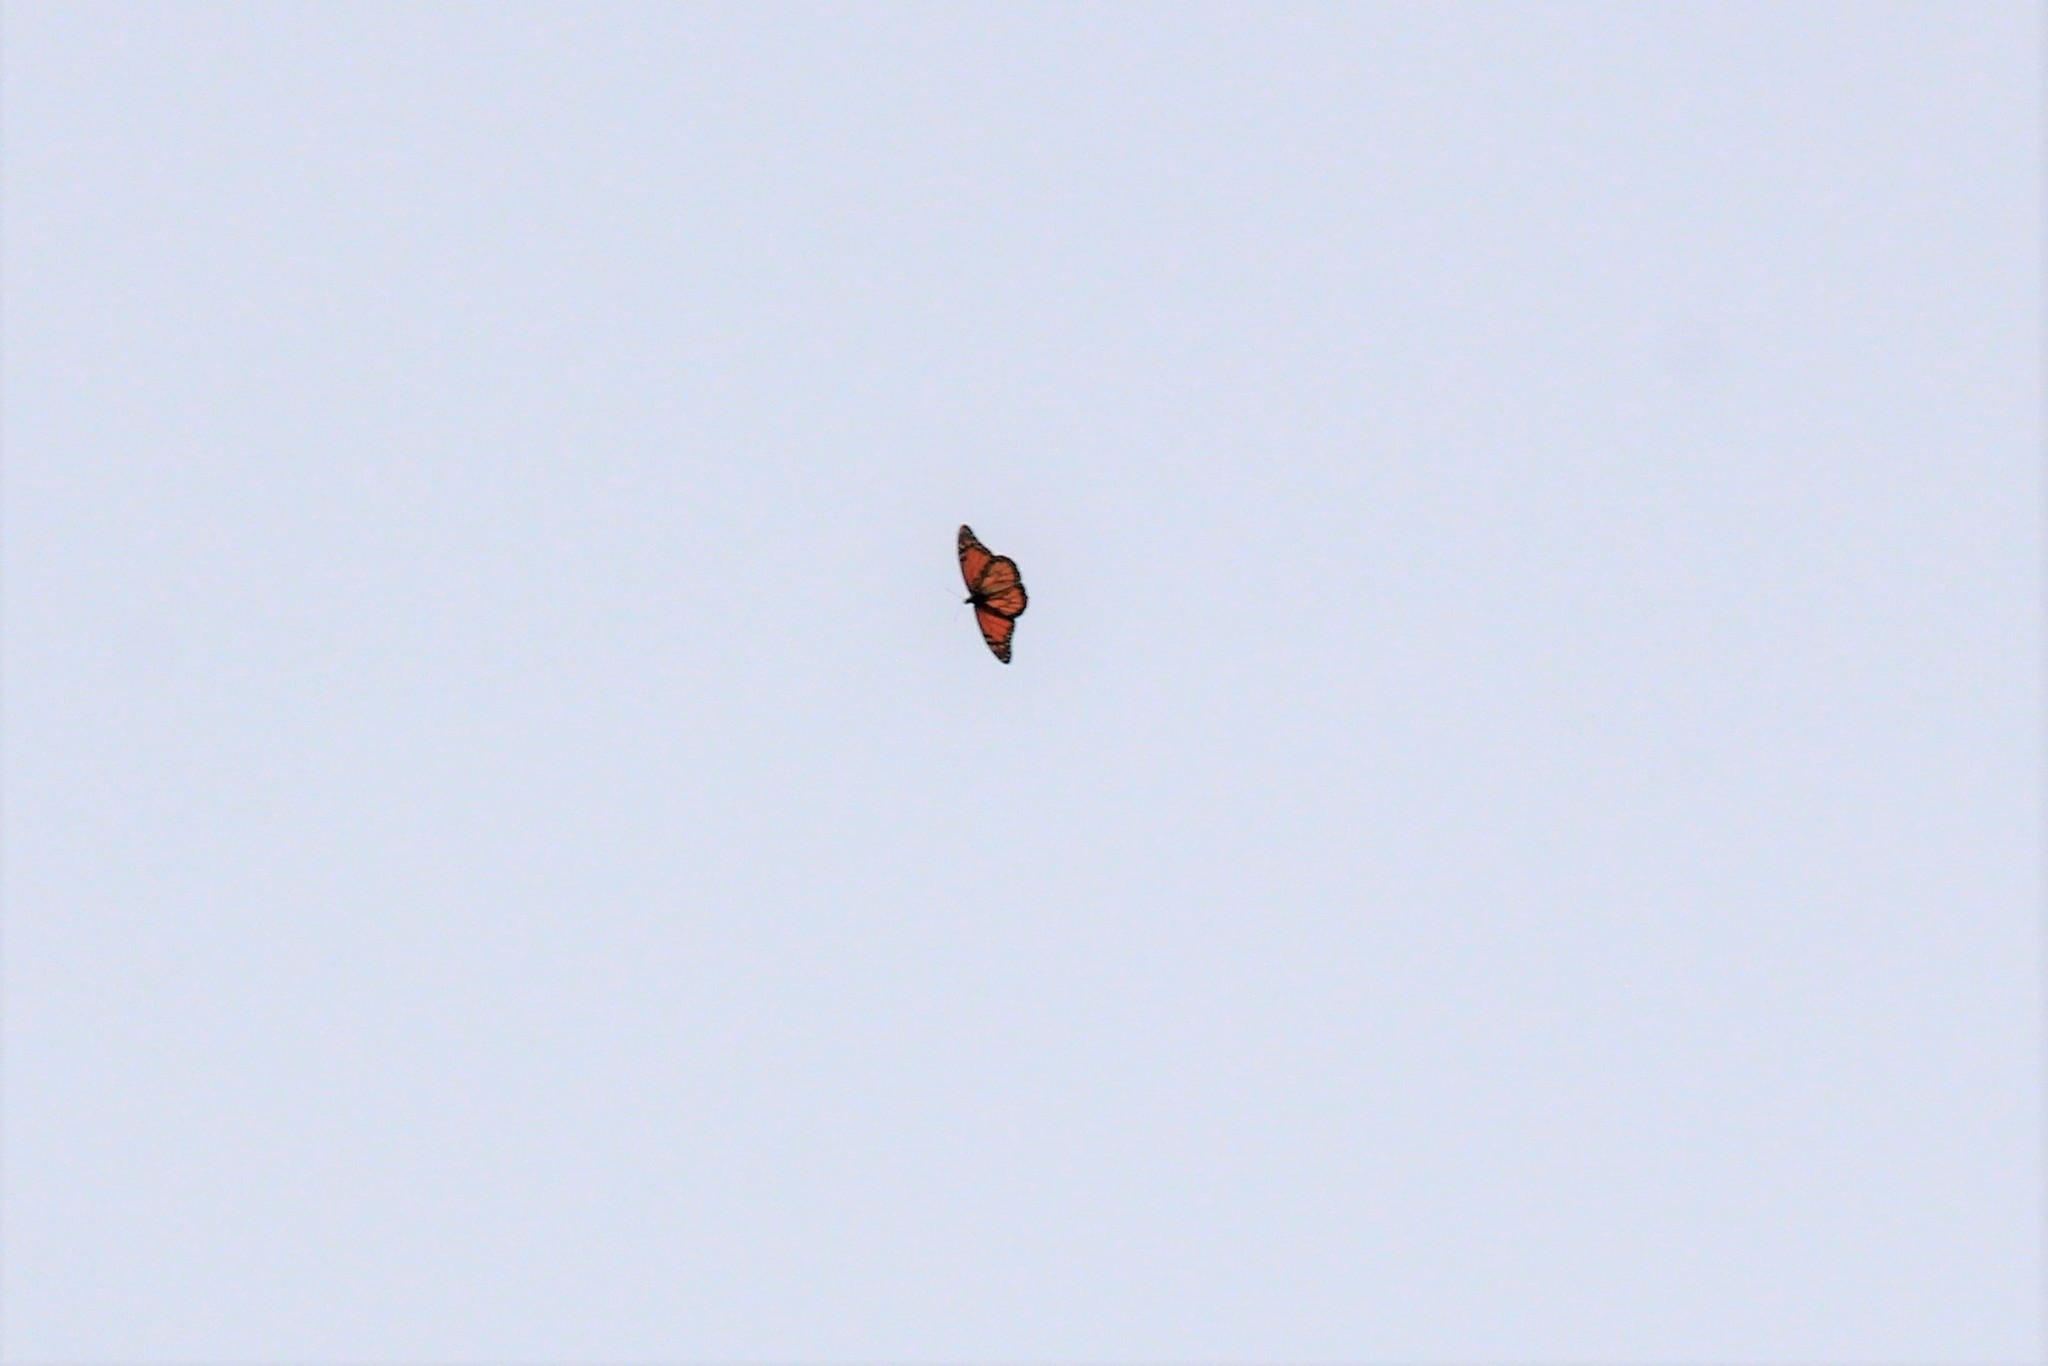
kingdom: Animalia
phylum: Arthropoda
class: Insecta
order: Lepidoptera
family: Nymphalidae
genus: Danaus
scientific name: Danaus plexippus
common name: Monarch
